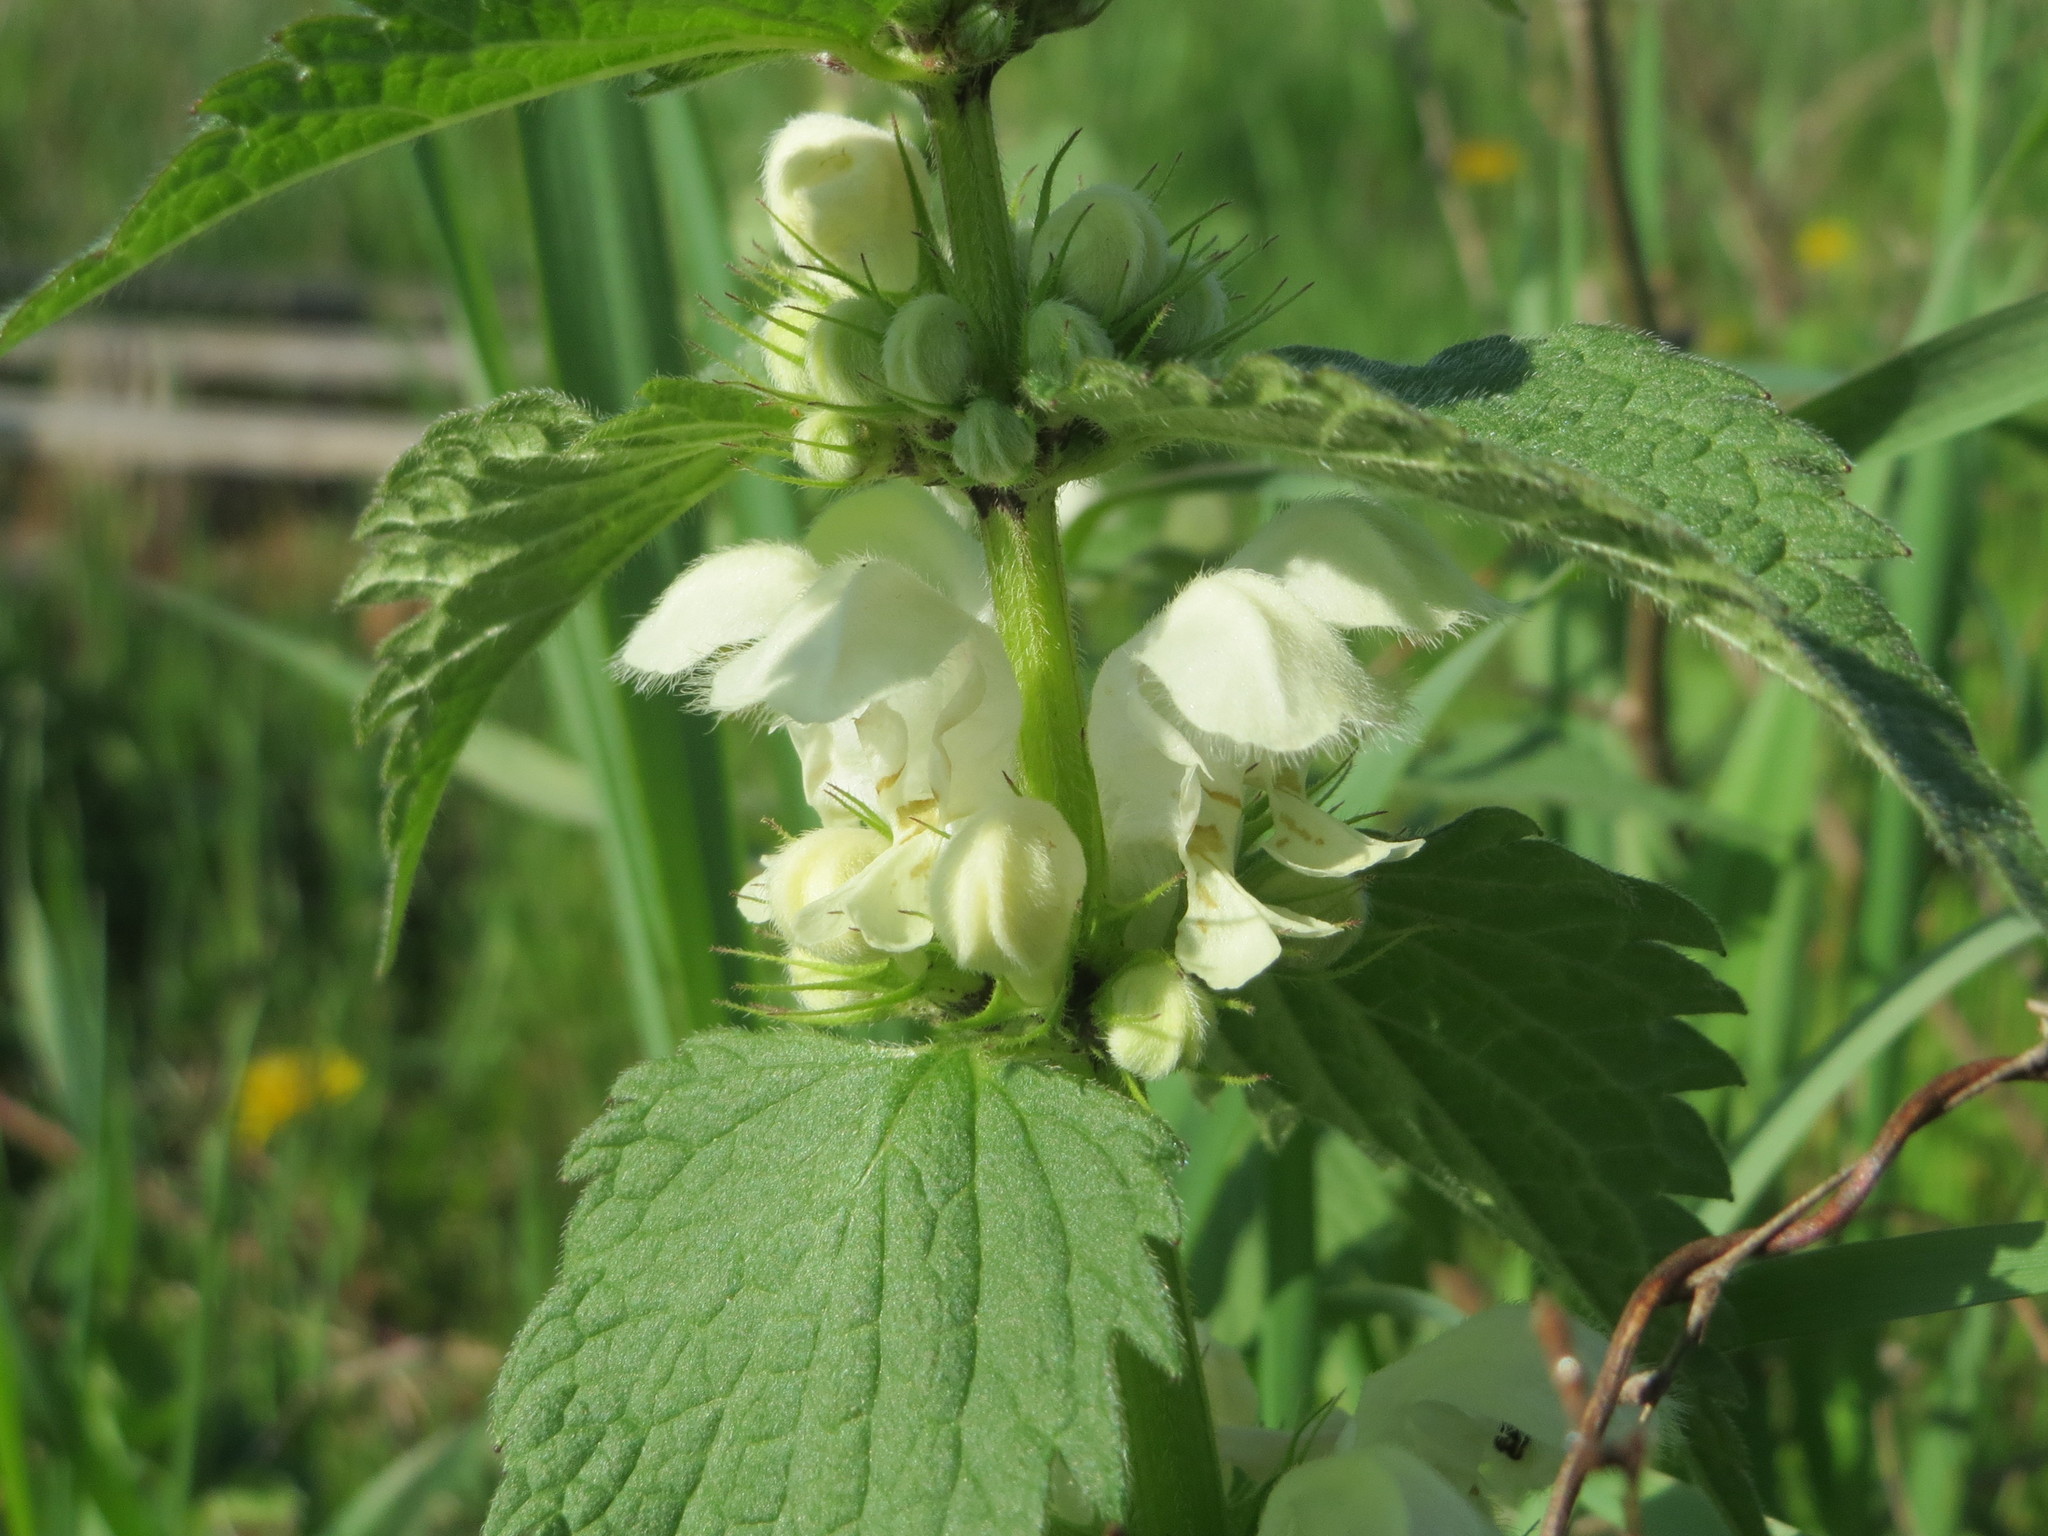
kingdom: Plantae
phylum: Tracheophyta
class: Magnoliopsida
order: Lamiales
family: Lamiaceae
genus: Lamium
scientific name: Lamium album
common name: White dead-nettle
